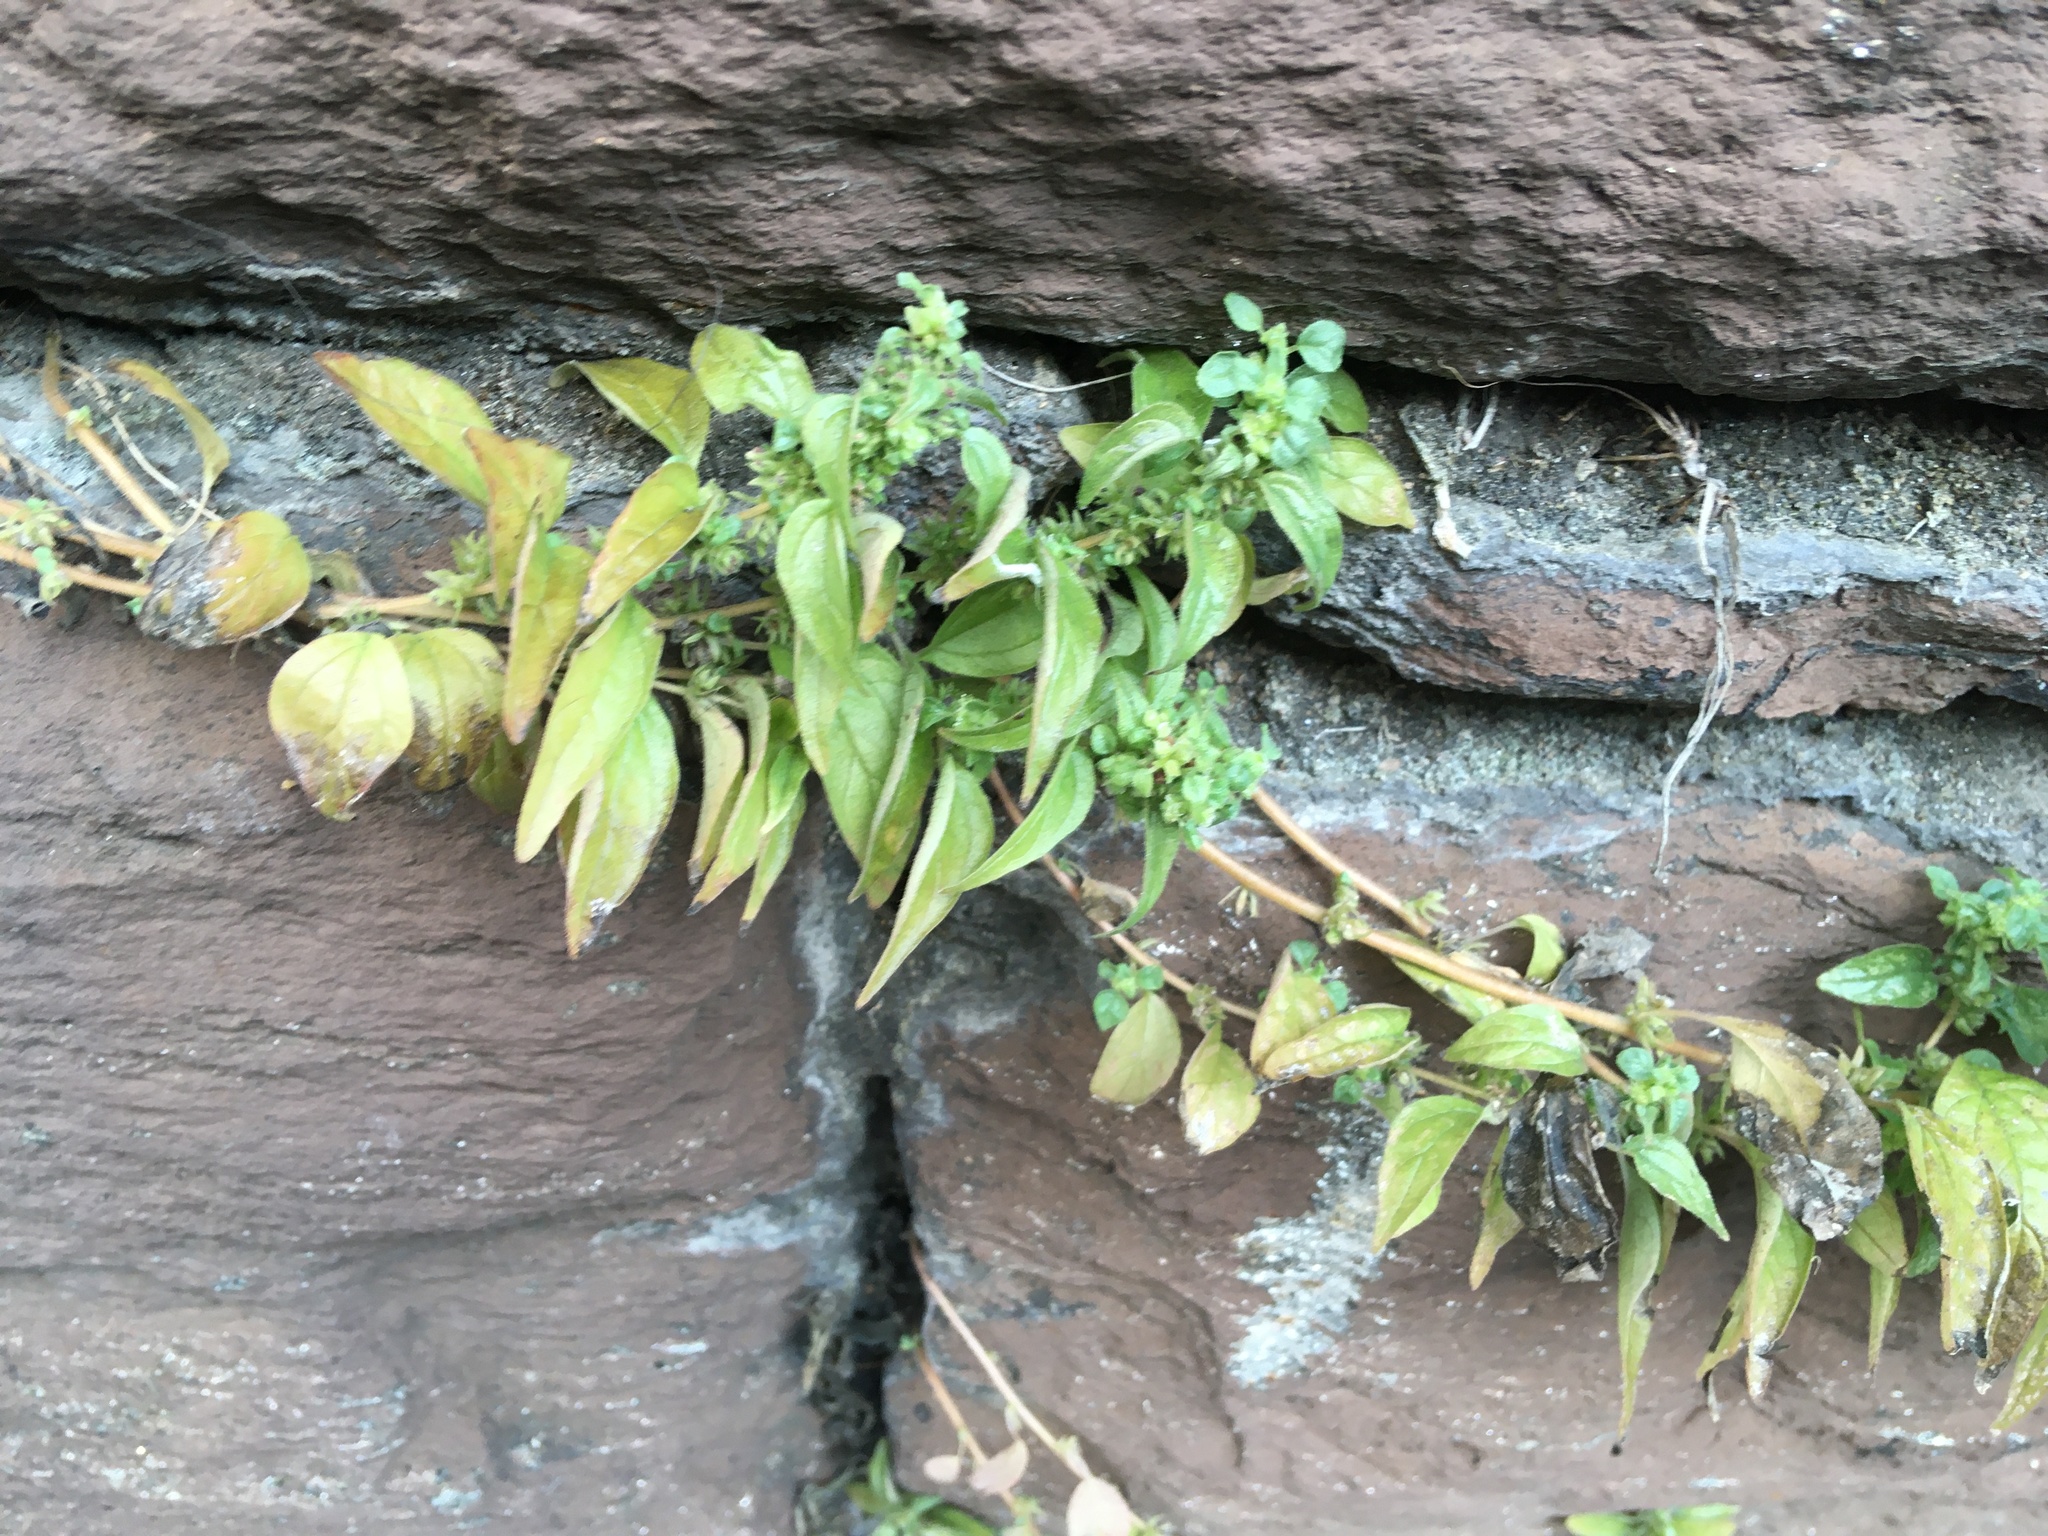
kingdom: Plantae
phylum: Tracheophyta
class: Magnoliopsida
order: Rosales
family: Urticaceae
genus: Parietaria
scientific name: Parietaria pensylvanica
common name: Pennsylvania pellitory
